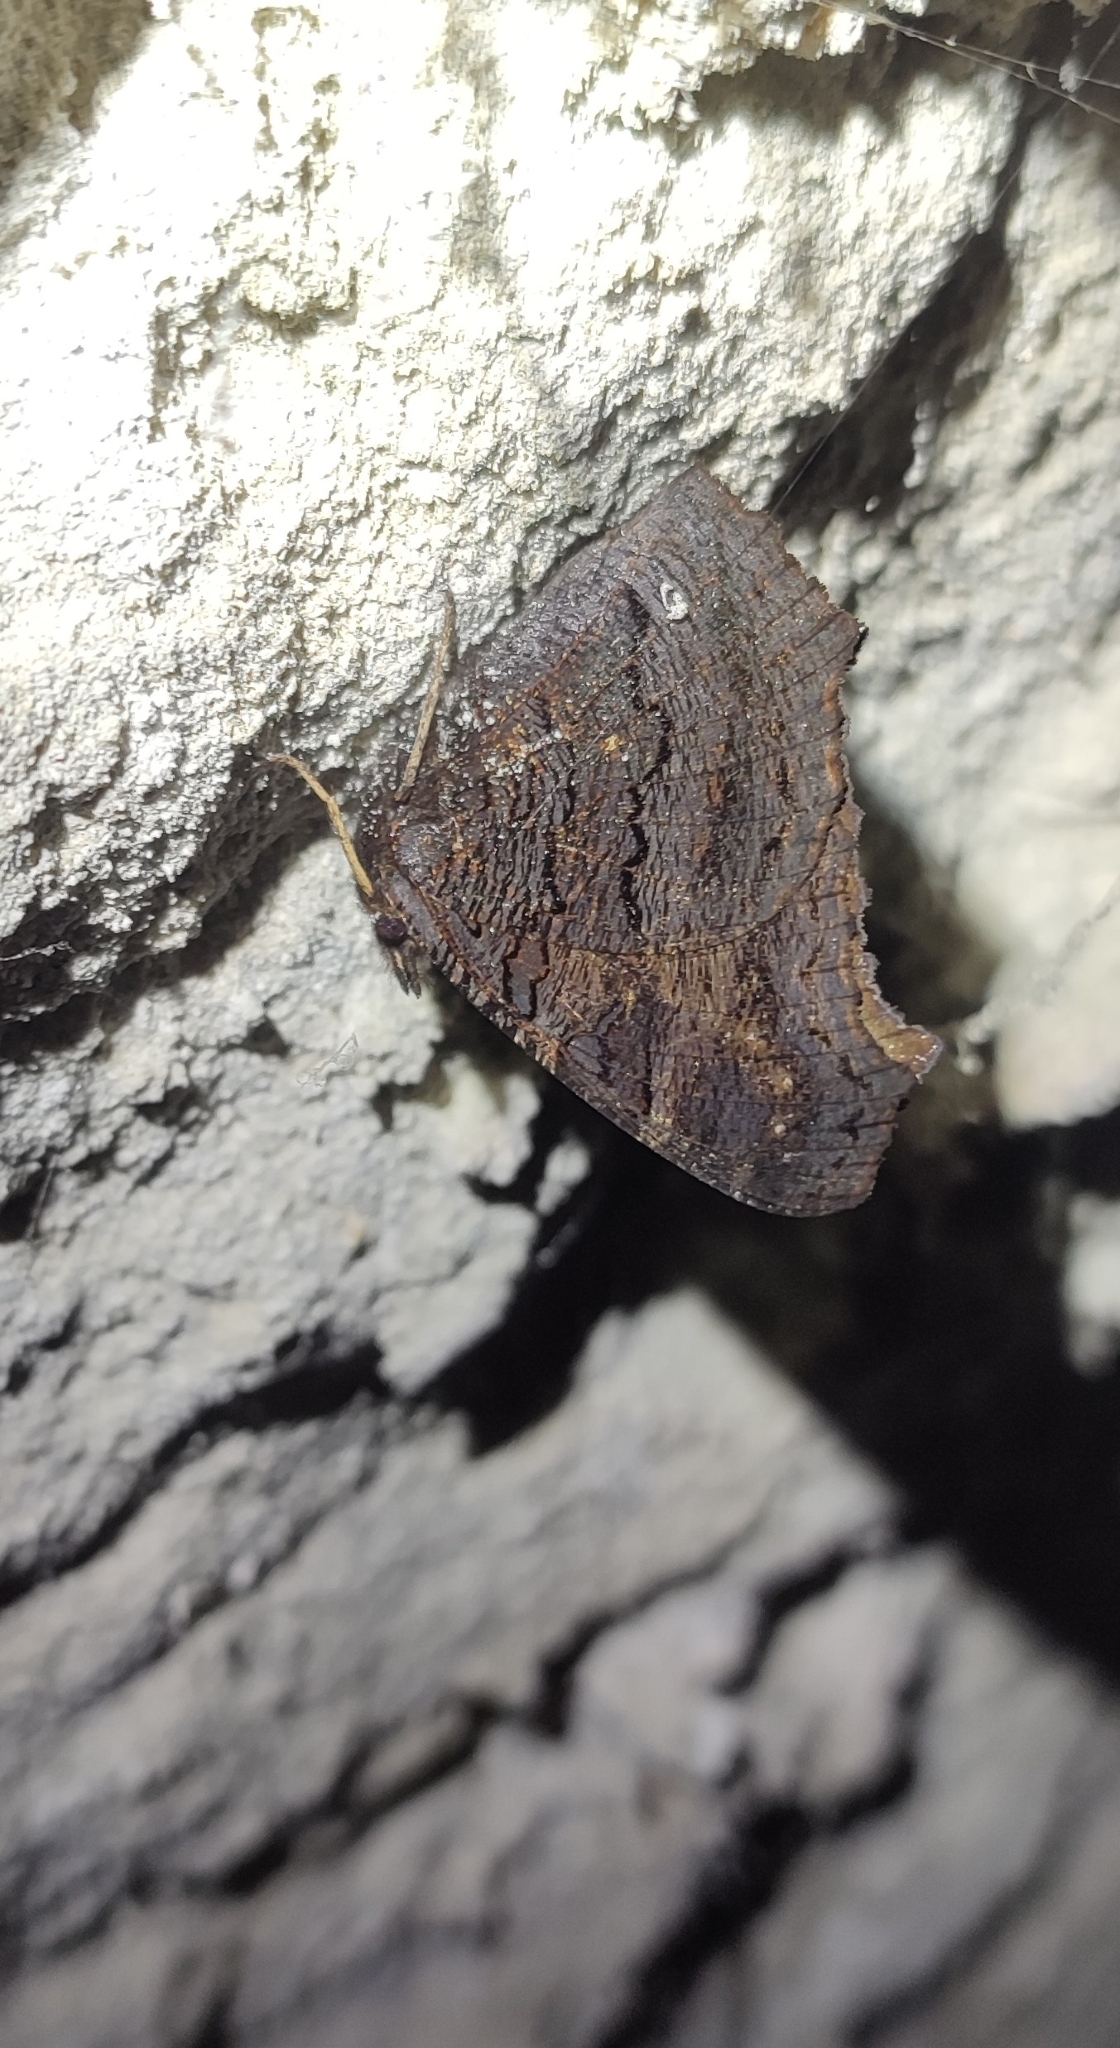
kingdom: Animalia
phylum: Arthropoda
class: Insecta
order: Lepidoptera
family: Nymphalidae
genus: Aglais
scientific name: Aglais io
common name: Peacock
